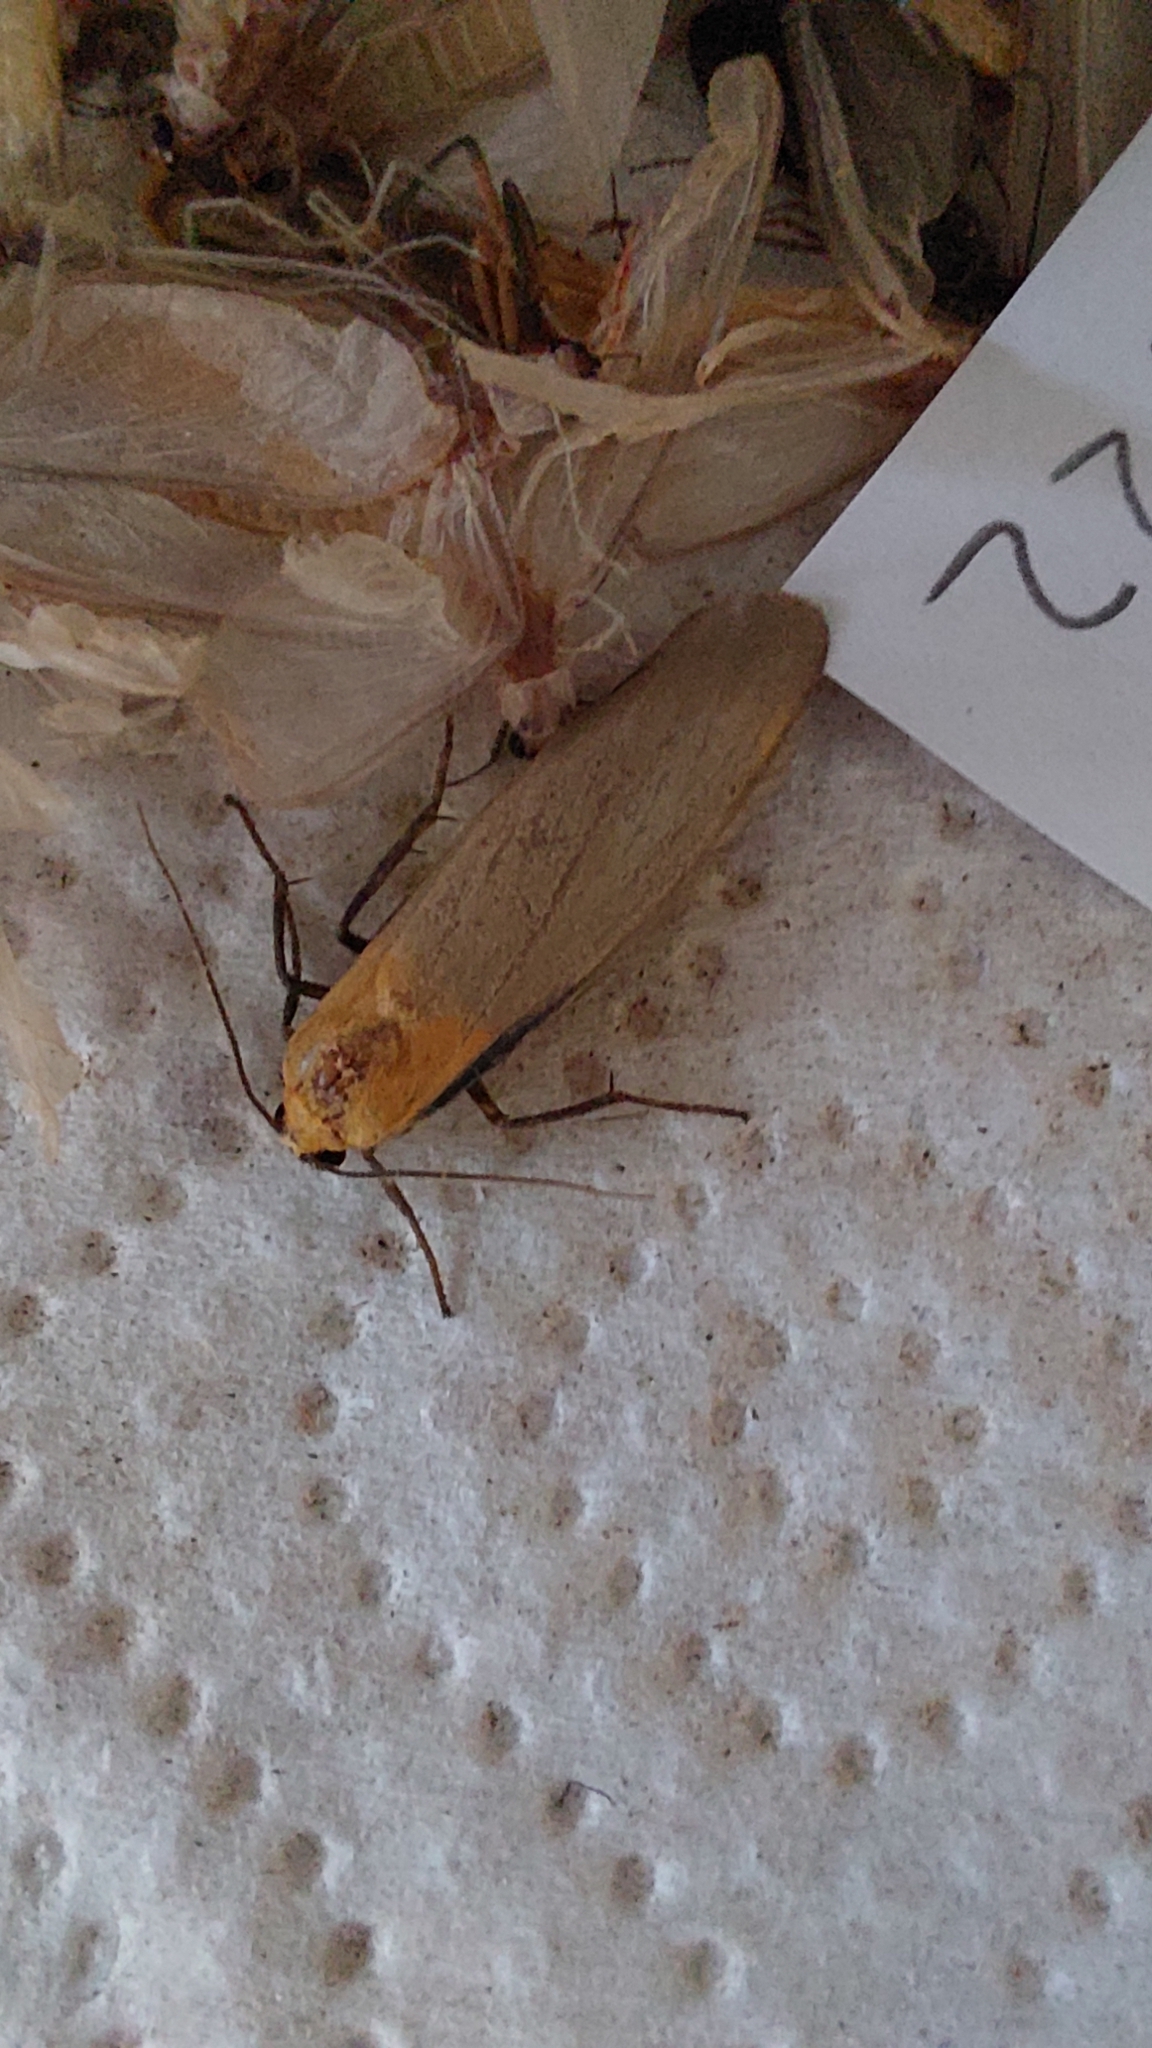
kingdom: Animalia
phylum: Arthropoda
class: Insecta
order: Lepidoptera
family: Erebidae
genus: Lithosia
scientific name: Lithosia quadra
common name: Four-spotted footman
